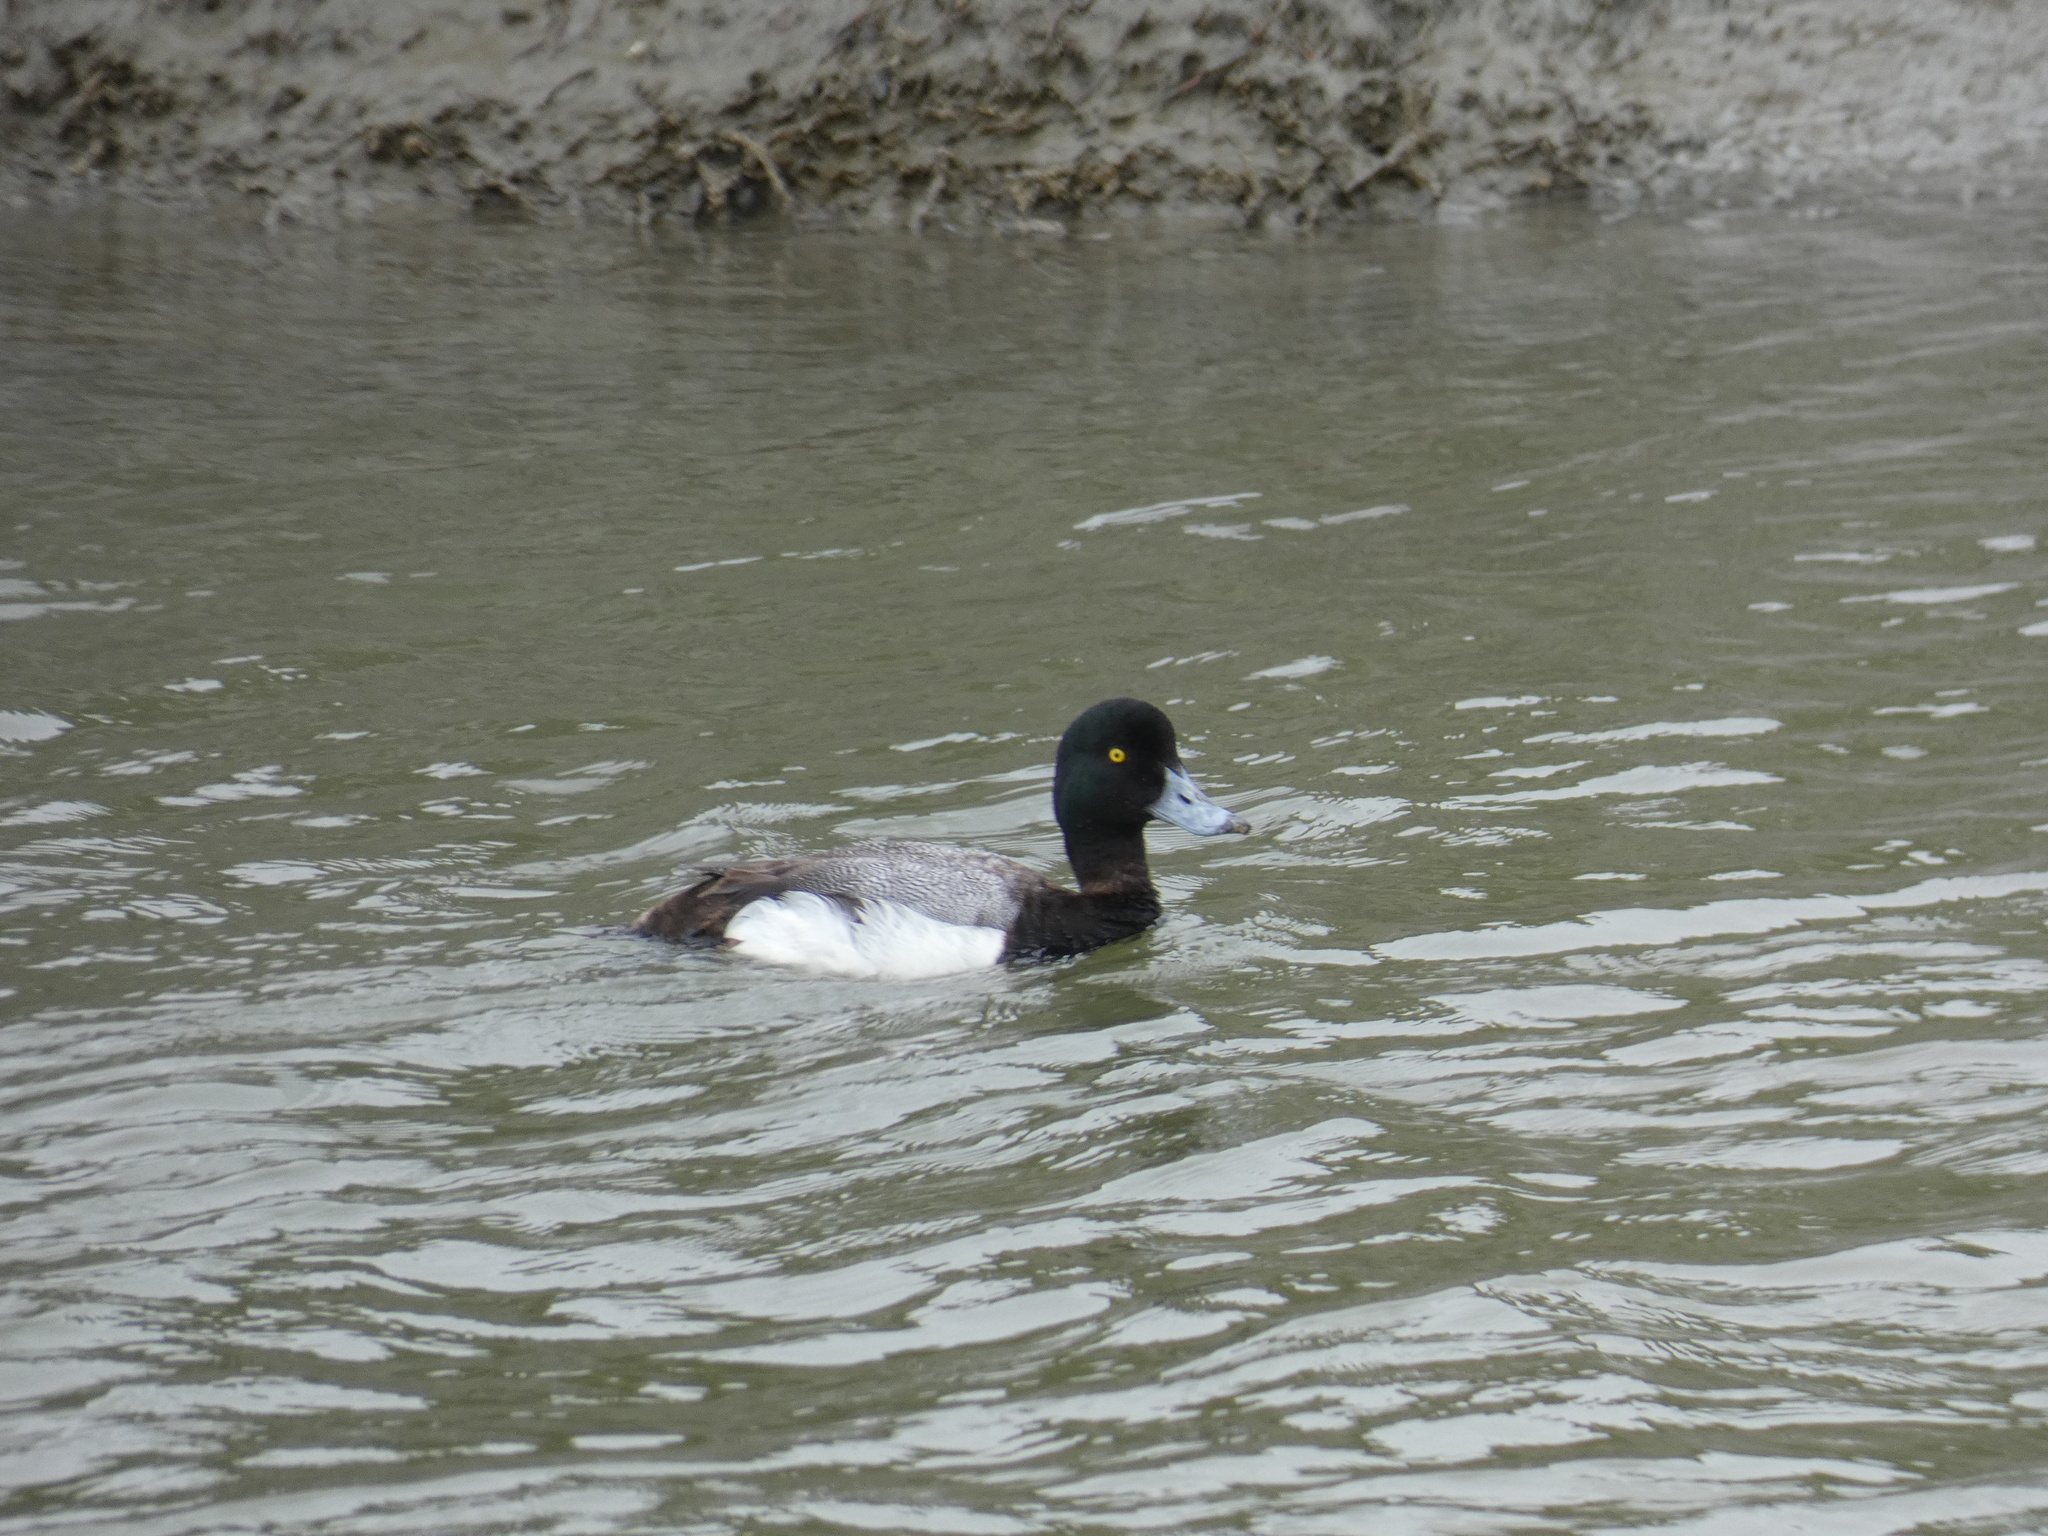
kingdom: Animalia
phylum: Chordata
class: Aves
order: Anseriformes
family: Anatidae
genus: Aythya
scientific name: Aythya marila
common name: Greater scaup
